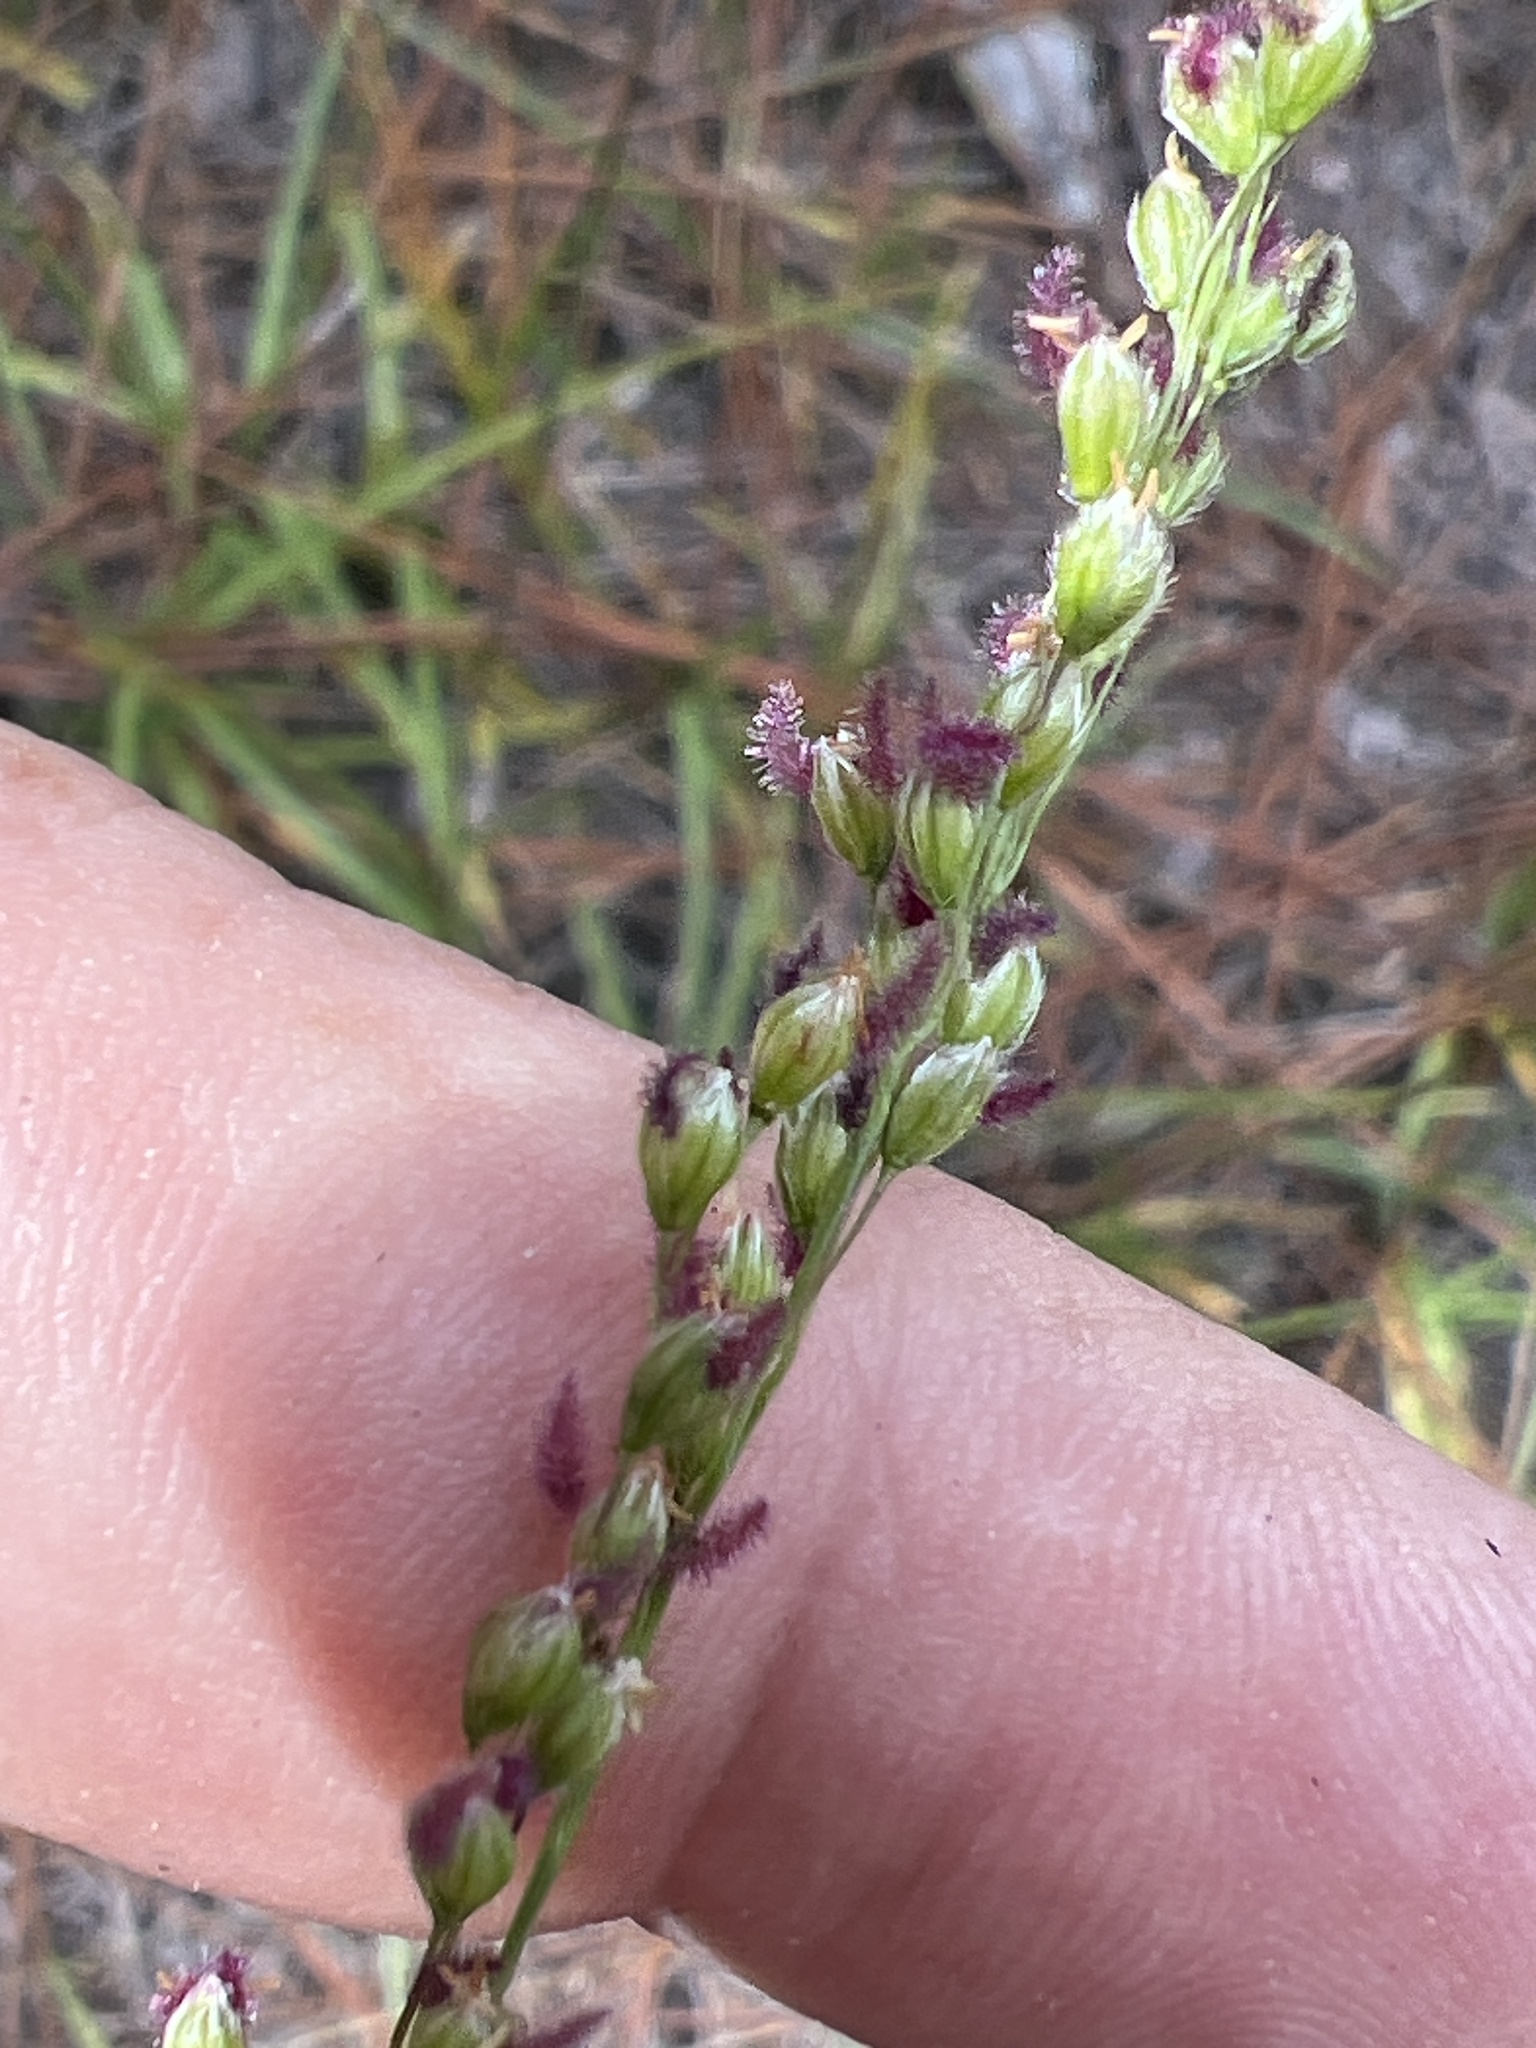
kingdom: Plantae
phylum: Tracheophyta
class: Liliopsida
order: Poales
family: Poaceae
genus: Anthenantia
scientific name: Anthenantia villosa
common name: Green silkyscale
